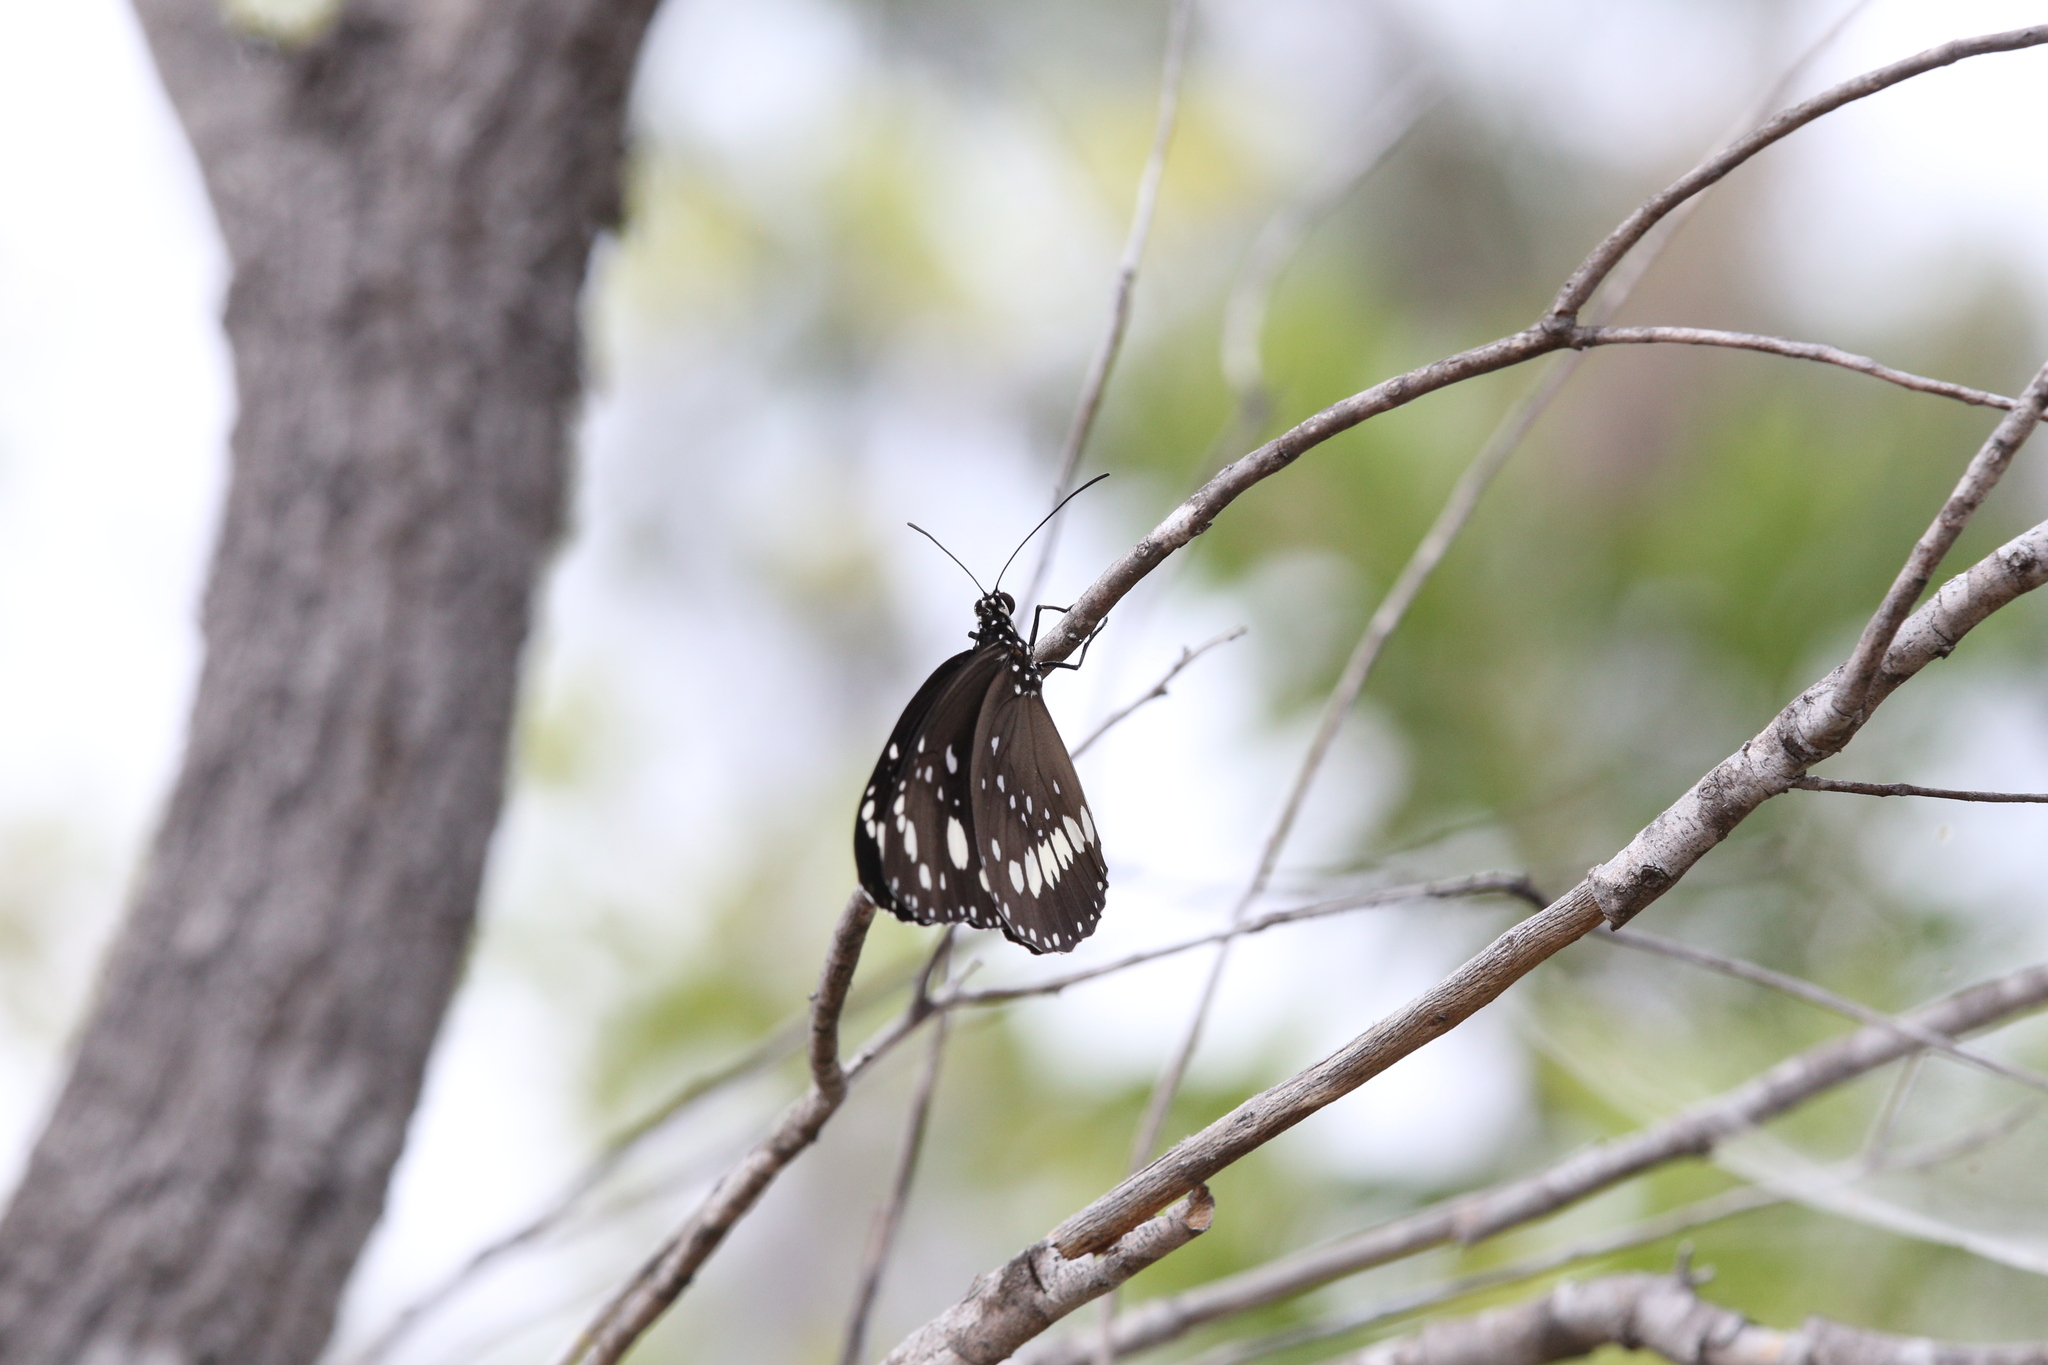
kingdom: Animalia
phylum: Arthropoda
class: Insecta
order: Lepidoptera
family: Nymphalidae
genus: Euploea
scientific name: Euploea core
